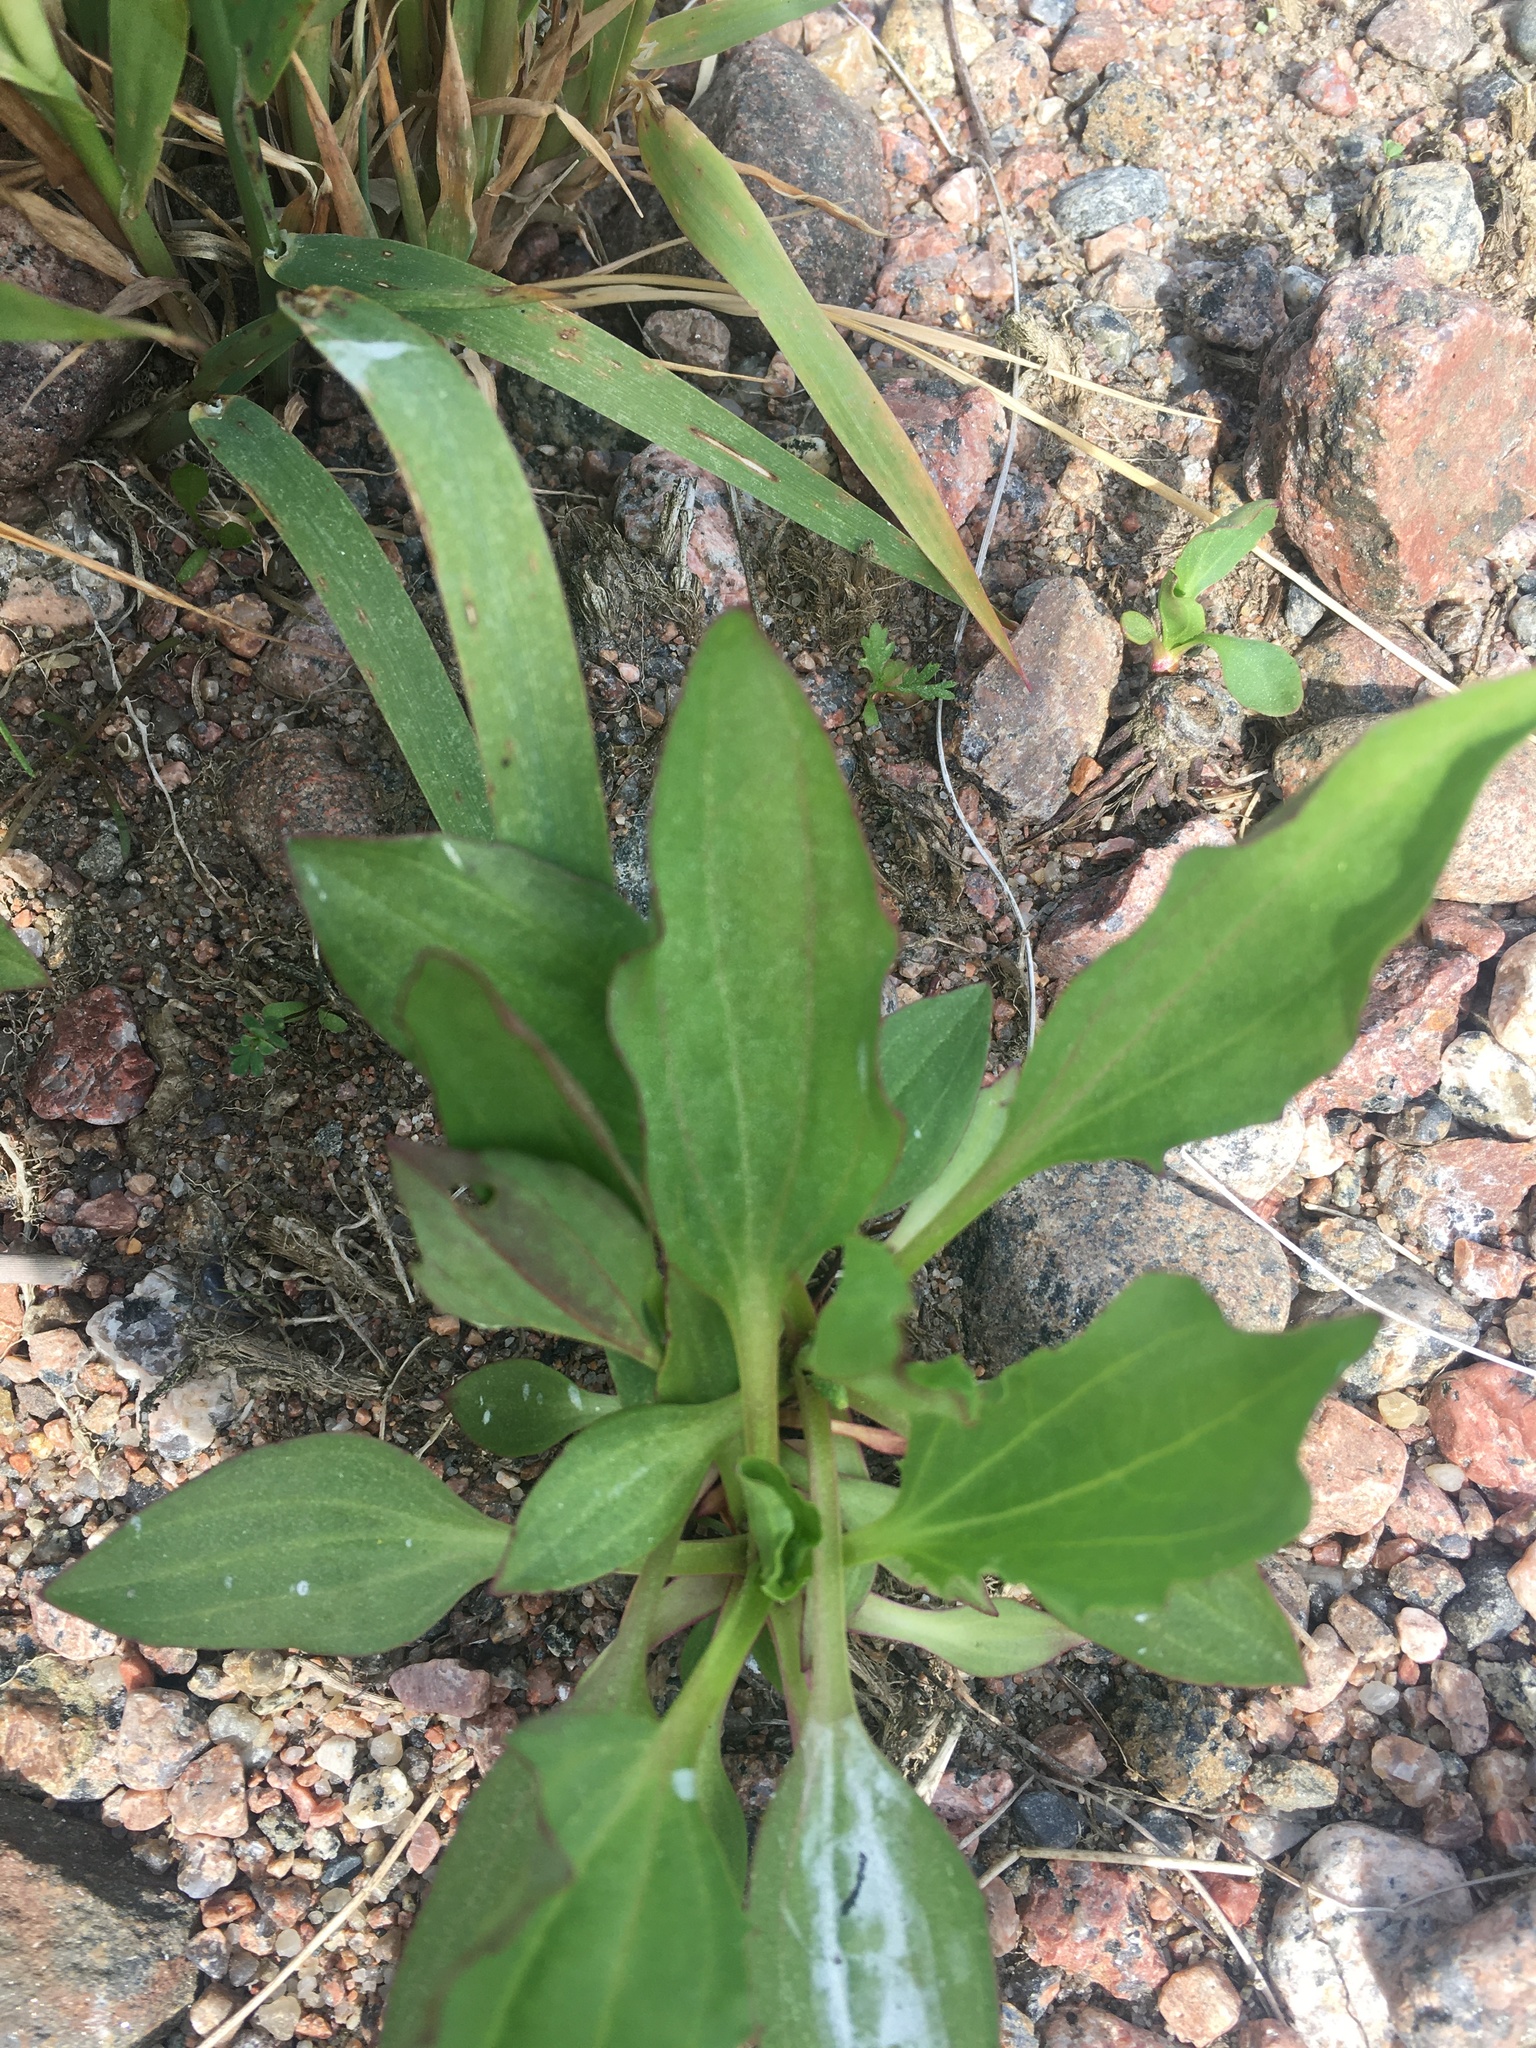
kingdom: Plantae
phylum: Tracheophyta
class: Magnoliopsida
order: Lamiales
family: Plantaginaceae
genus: Plantago
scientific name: Plantago major
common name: Common plantain
